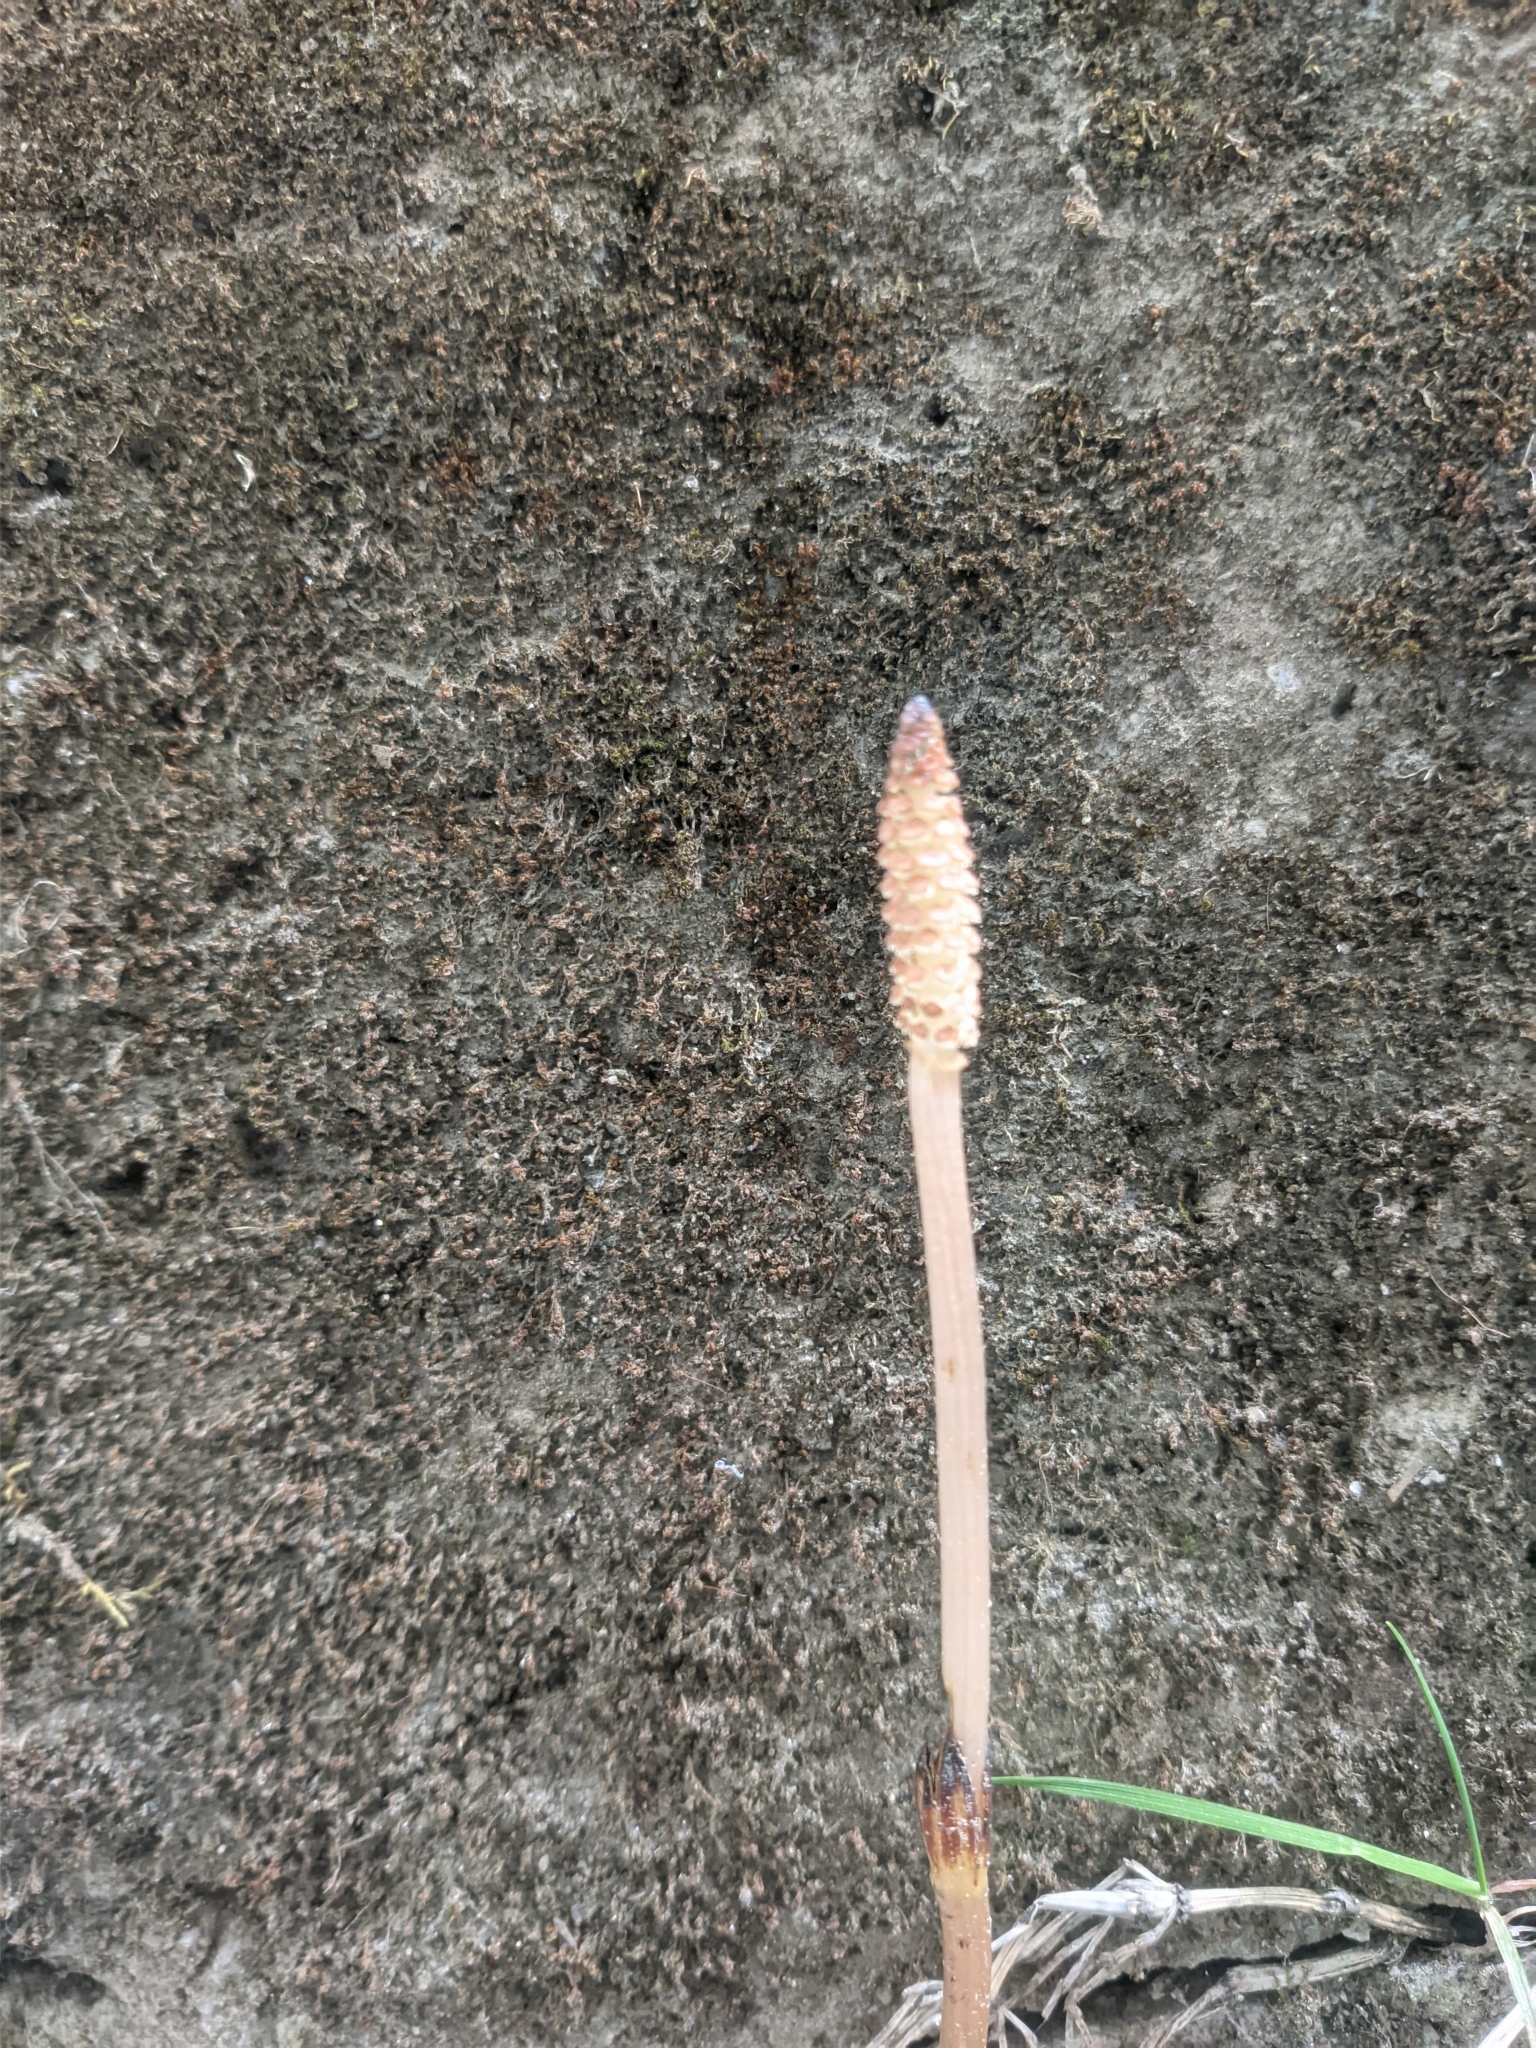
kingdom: Plantae
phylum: Tracheophyta
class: Polypodiopsida
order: Equisetales
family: Equisetaceae
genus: Equisetum
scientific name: Equisetum arvense
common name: Field horsetail
